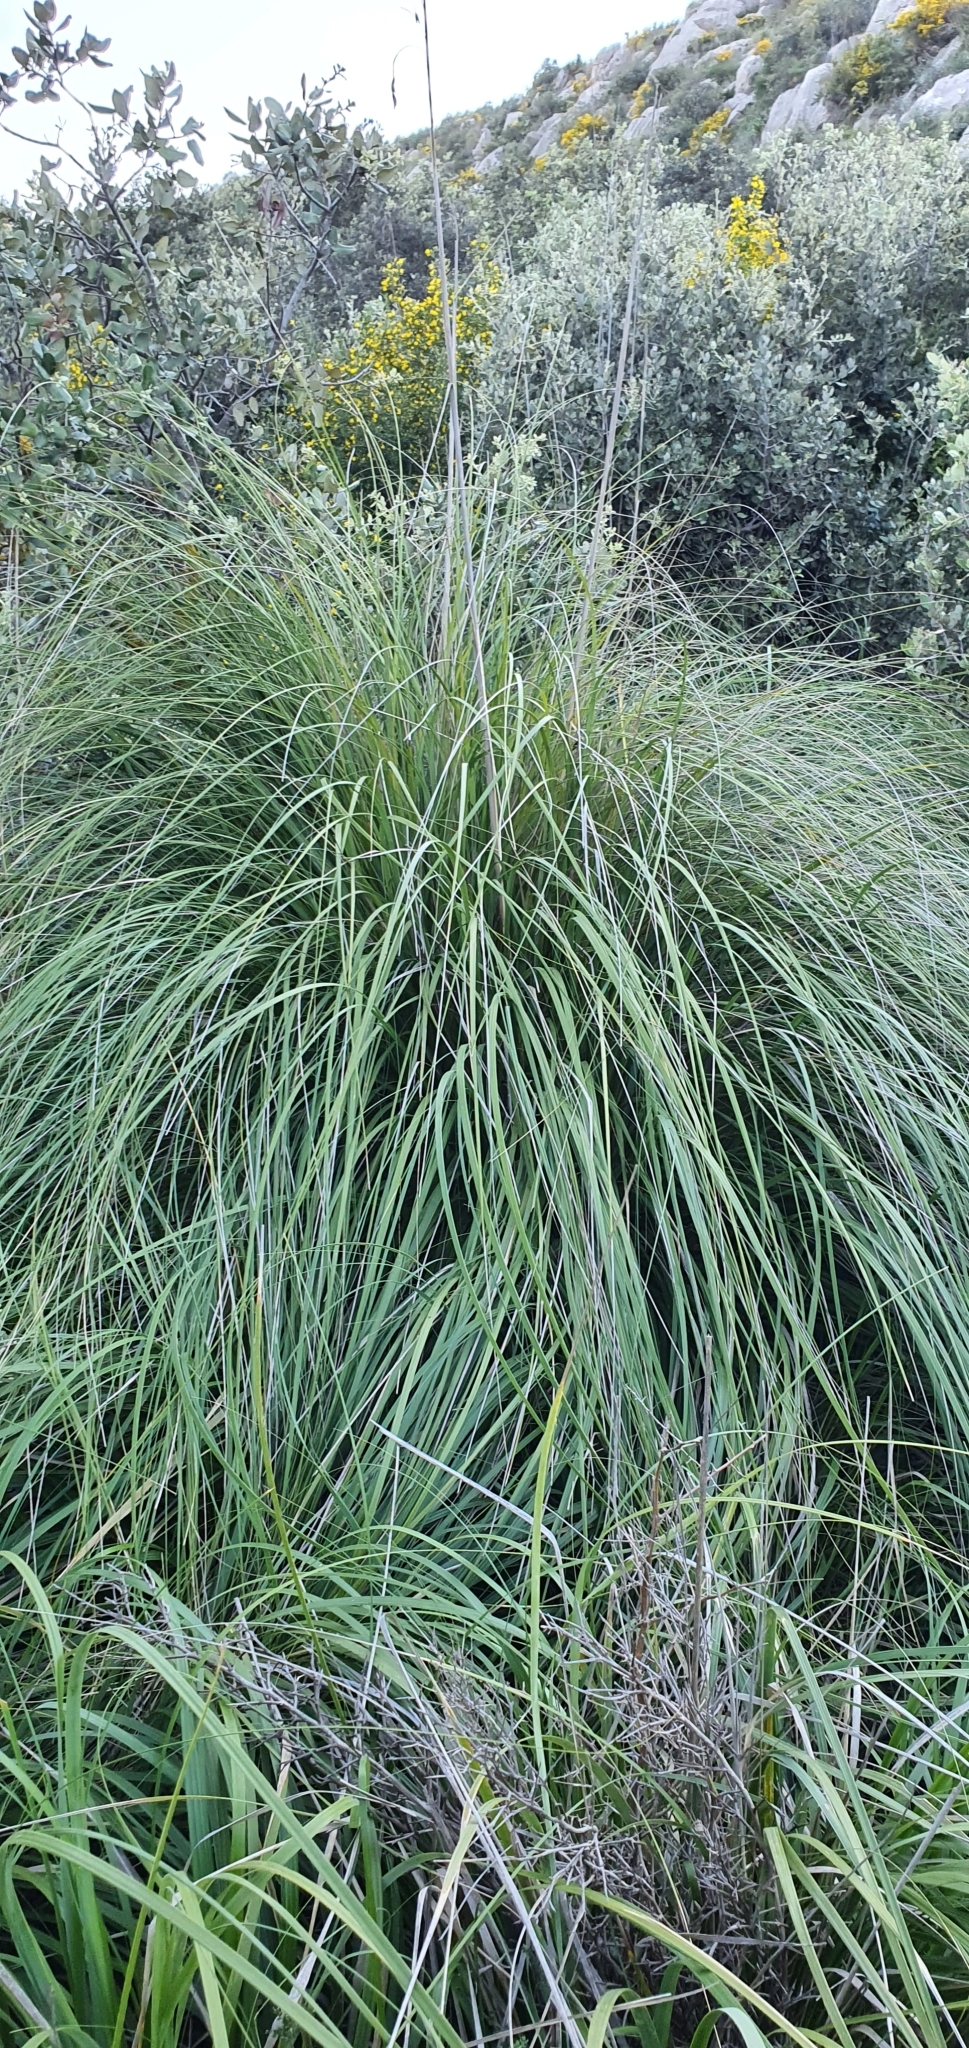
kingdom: Plantae
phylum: Tracheophyta
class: Liliopsida
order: Poales
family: Poaceae
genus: Ampelodesmos
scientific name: Ampelodesmos mauritanicus
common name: Mauritanian grass
